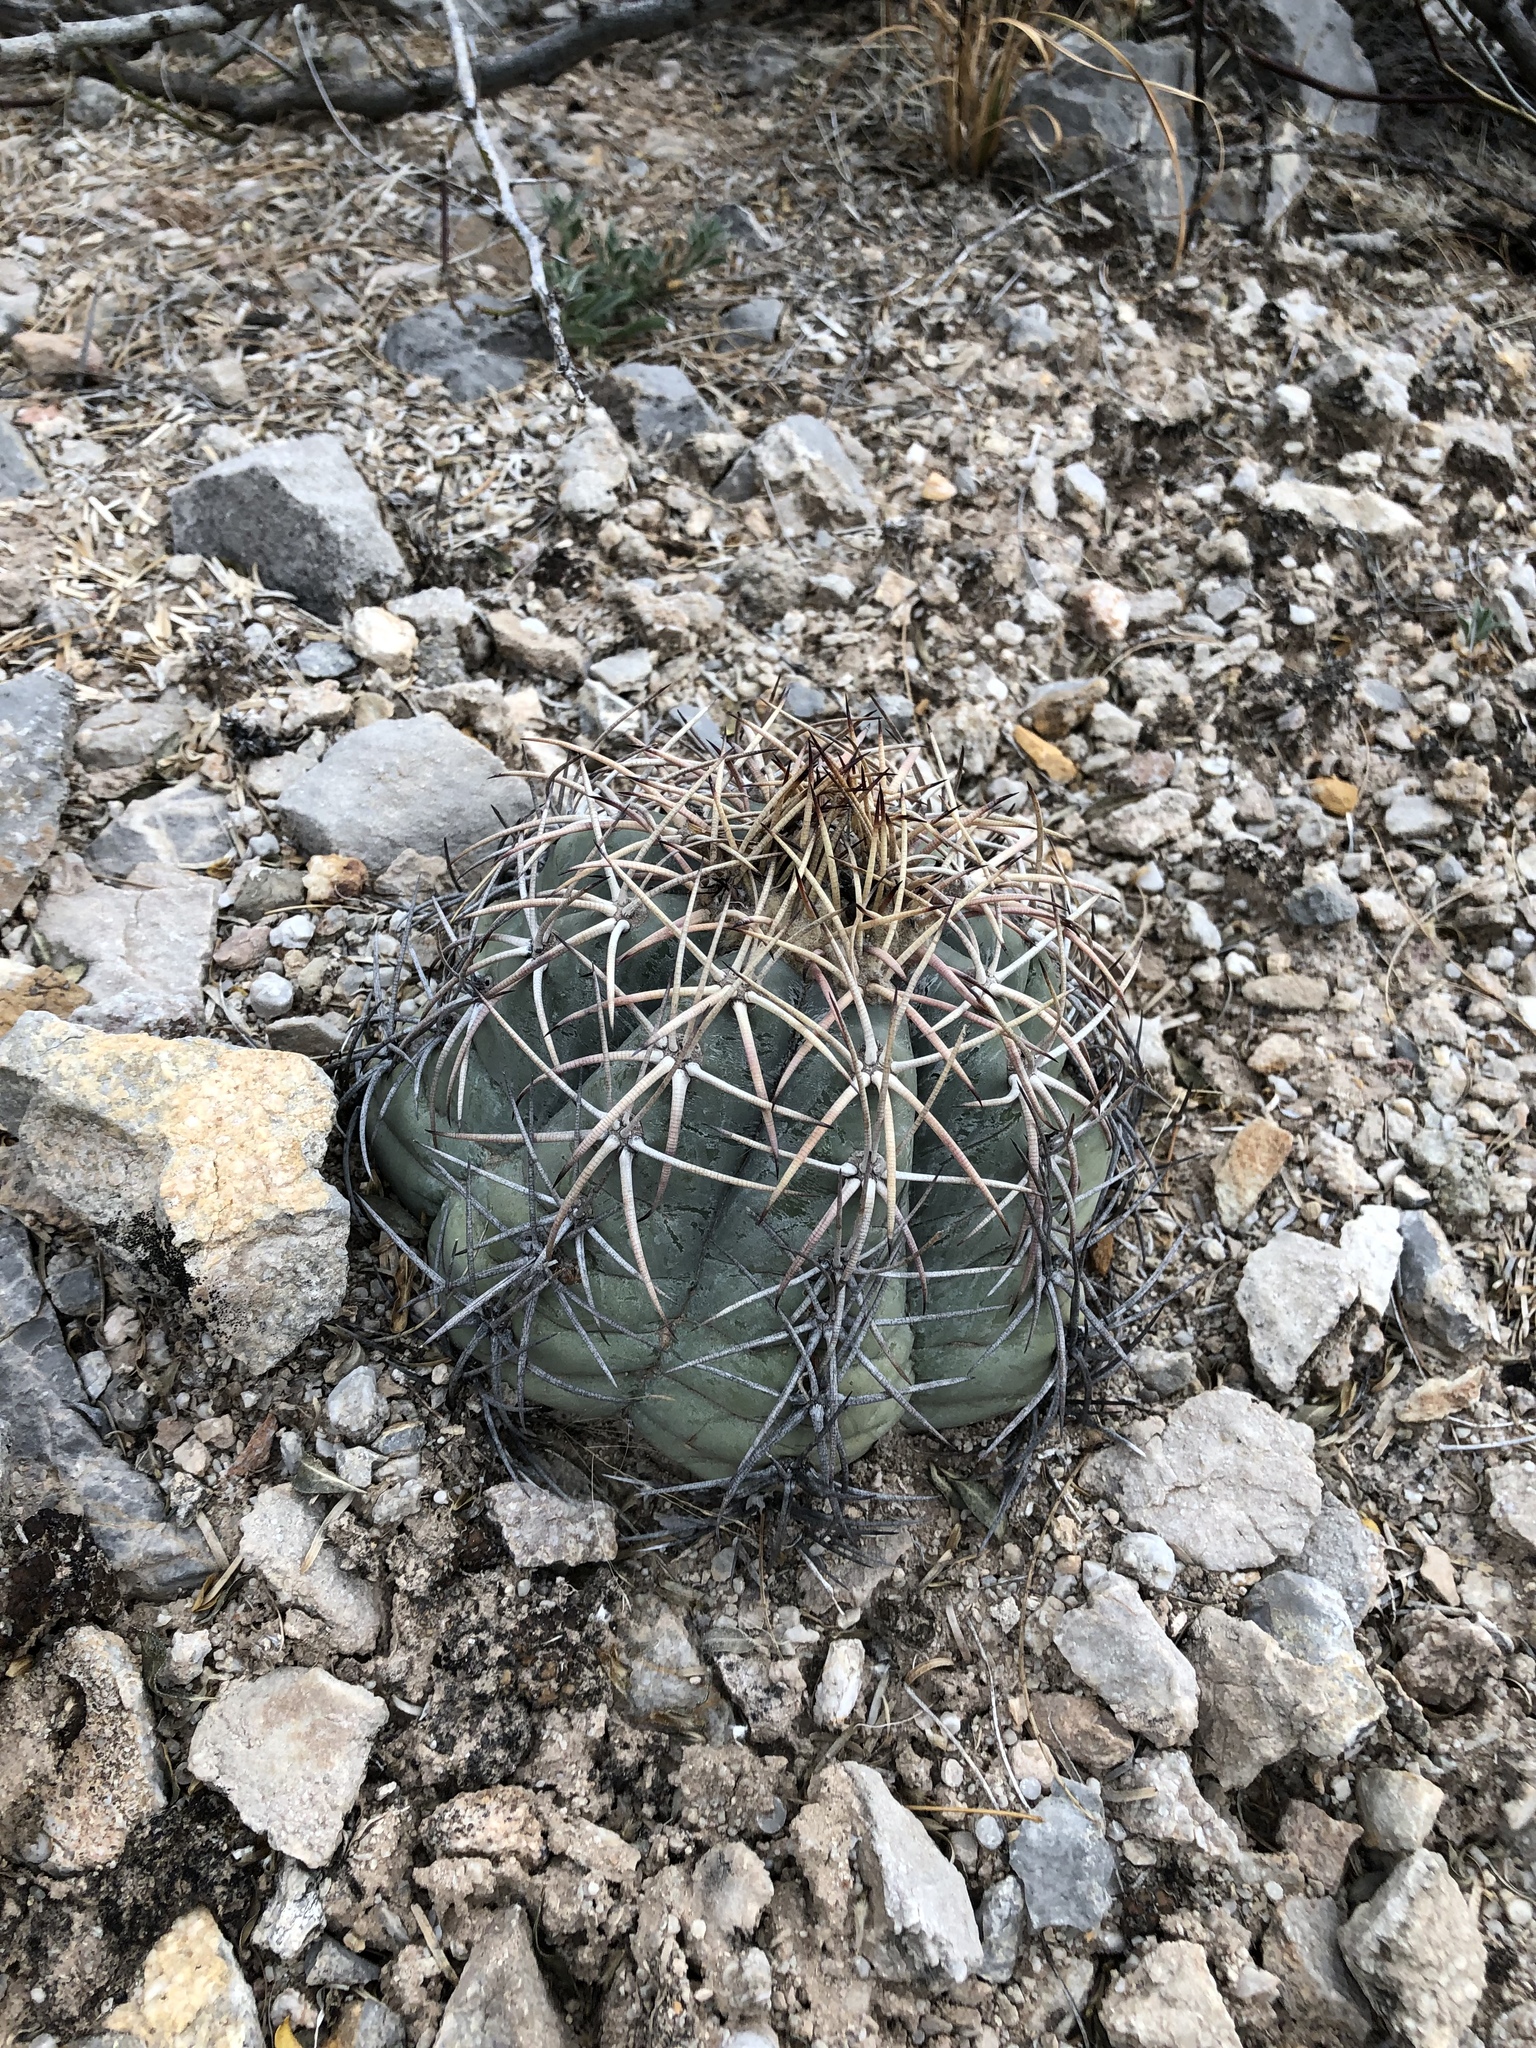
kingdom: Plantae
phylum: Tracheophyta
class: Magnoliopsida
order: Caryophyllales
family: Cactaceae
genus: Echinocactus
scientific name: Echinocactus horizonthalonius
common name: Devilshead
